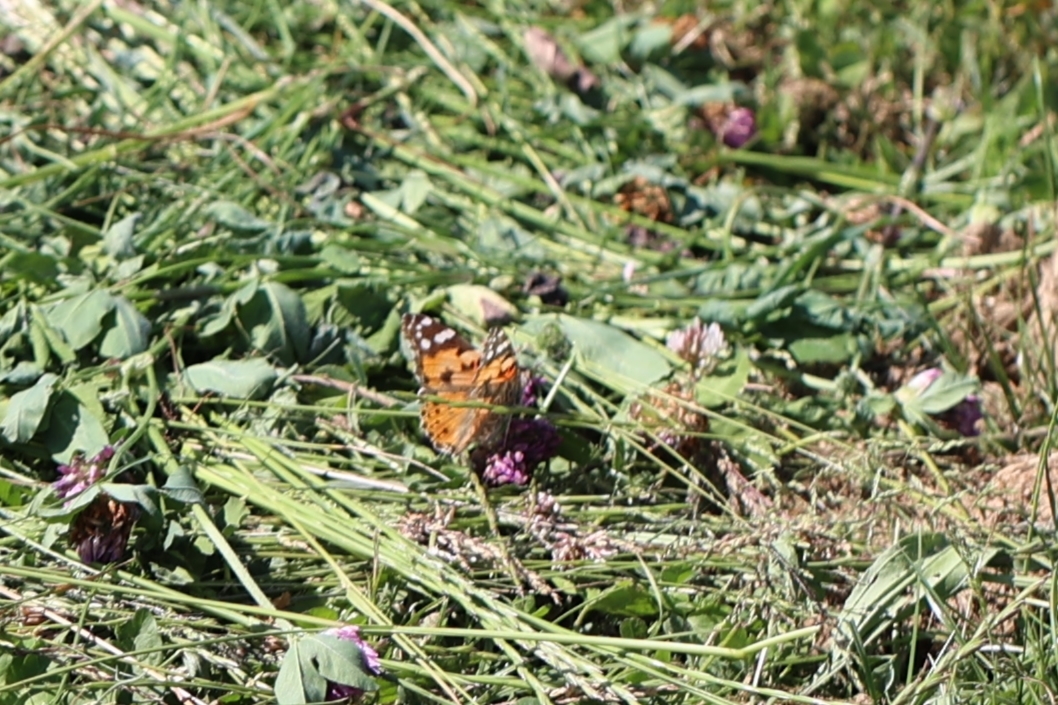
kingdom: Animalia
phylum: Arthropoda
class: Insecta
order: Lepidoptera
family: Nymphalidae
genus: Vanessa
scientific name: Vanessa cardui
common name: Painted lady
